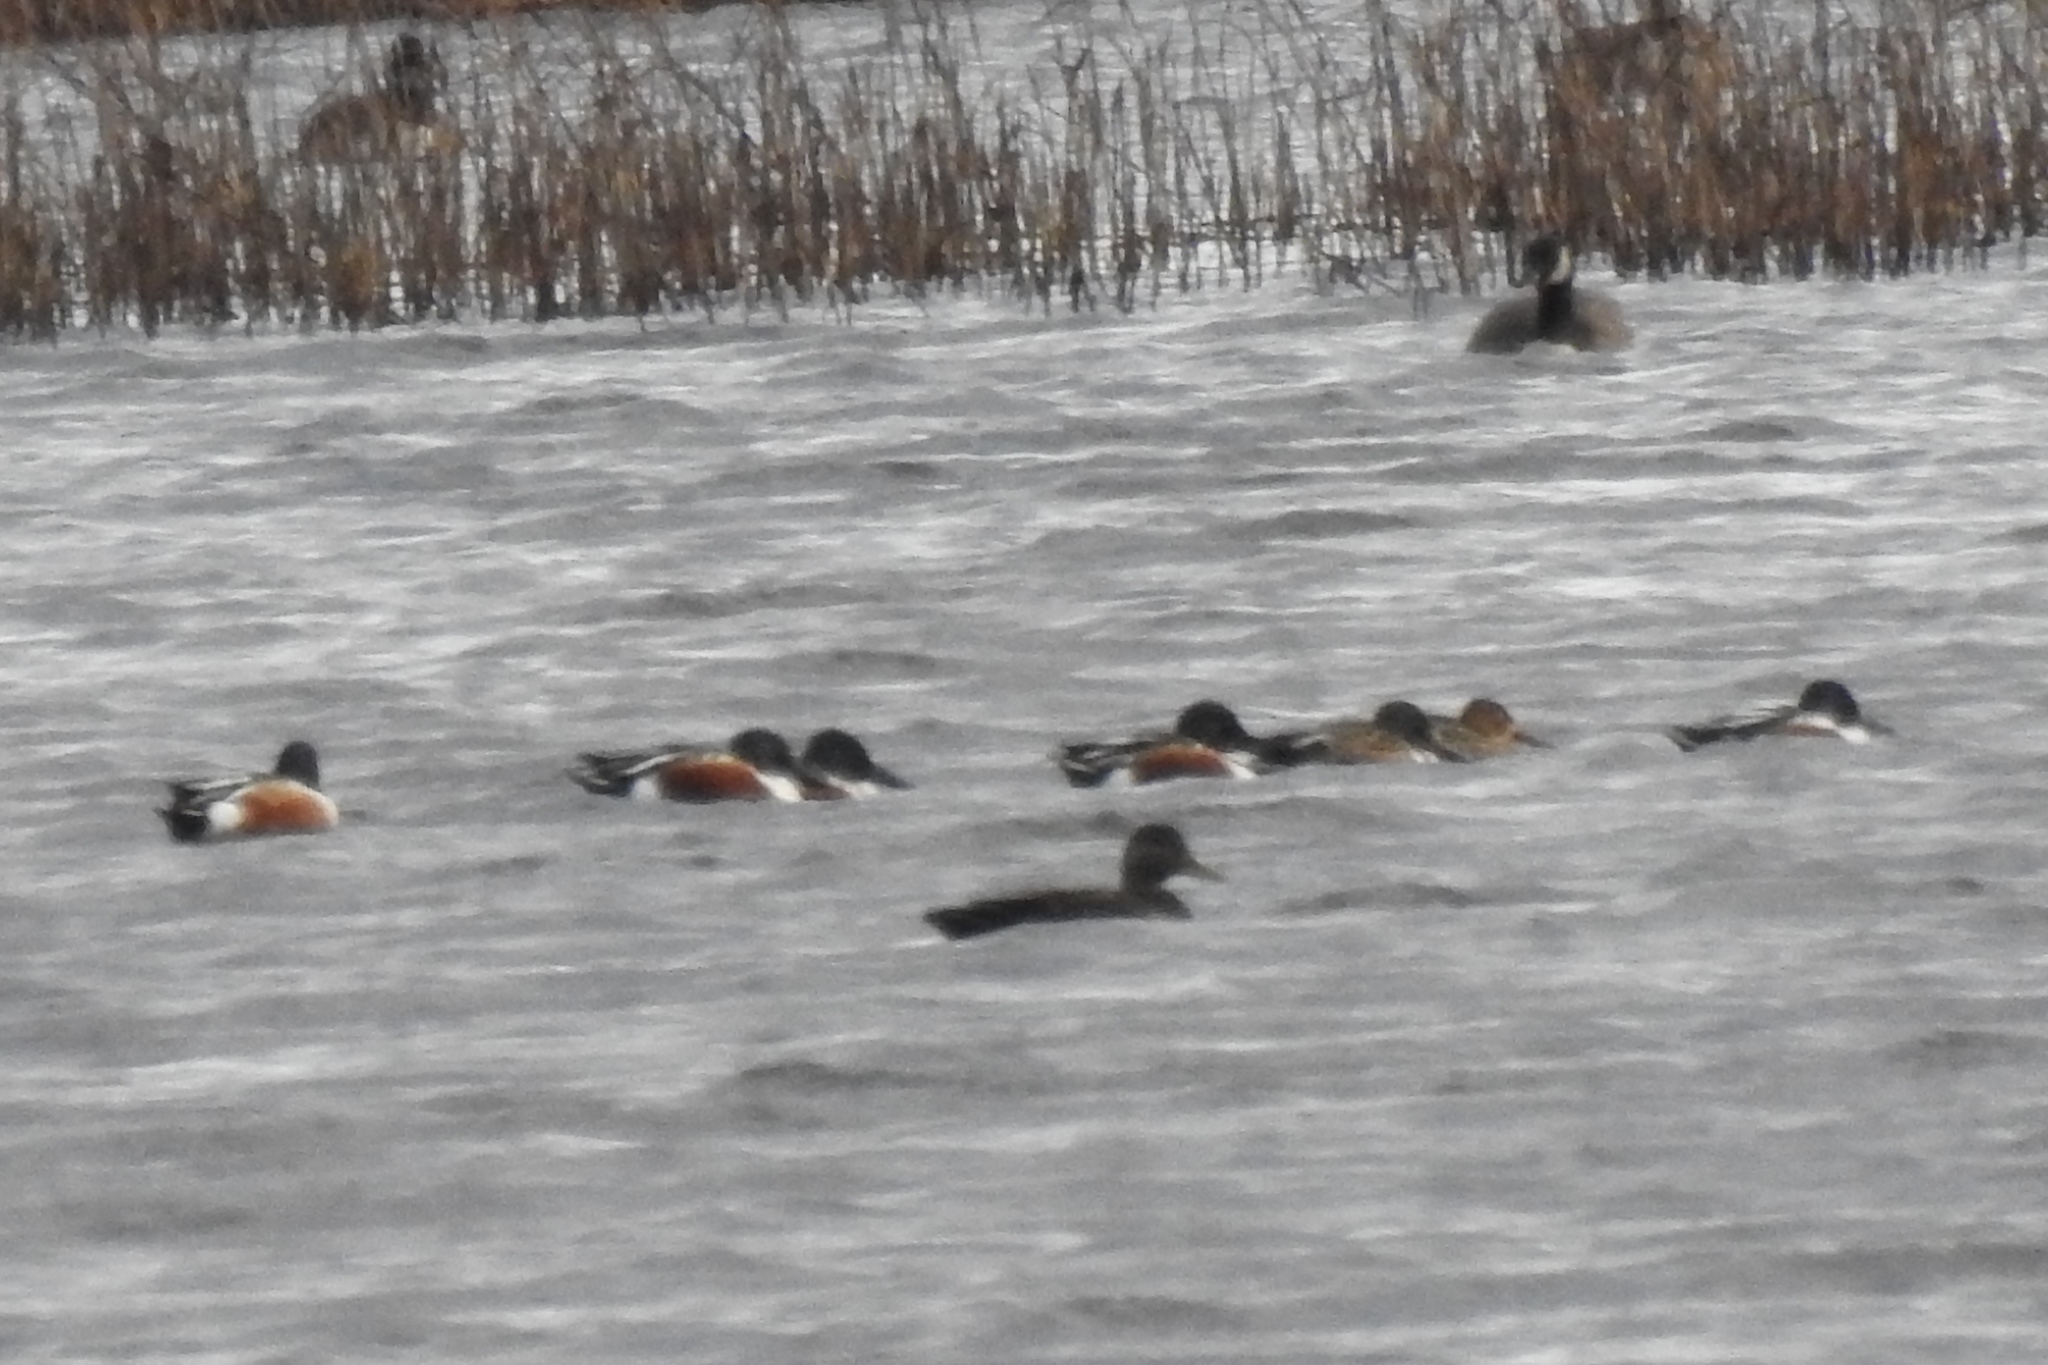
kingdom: Animalia
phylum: Chordata
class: Aves
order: Anseriformes
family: Anatidae
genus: Spatula
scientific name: Spatula clypeata
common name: Northern shoveler
